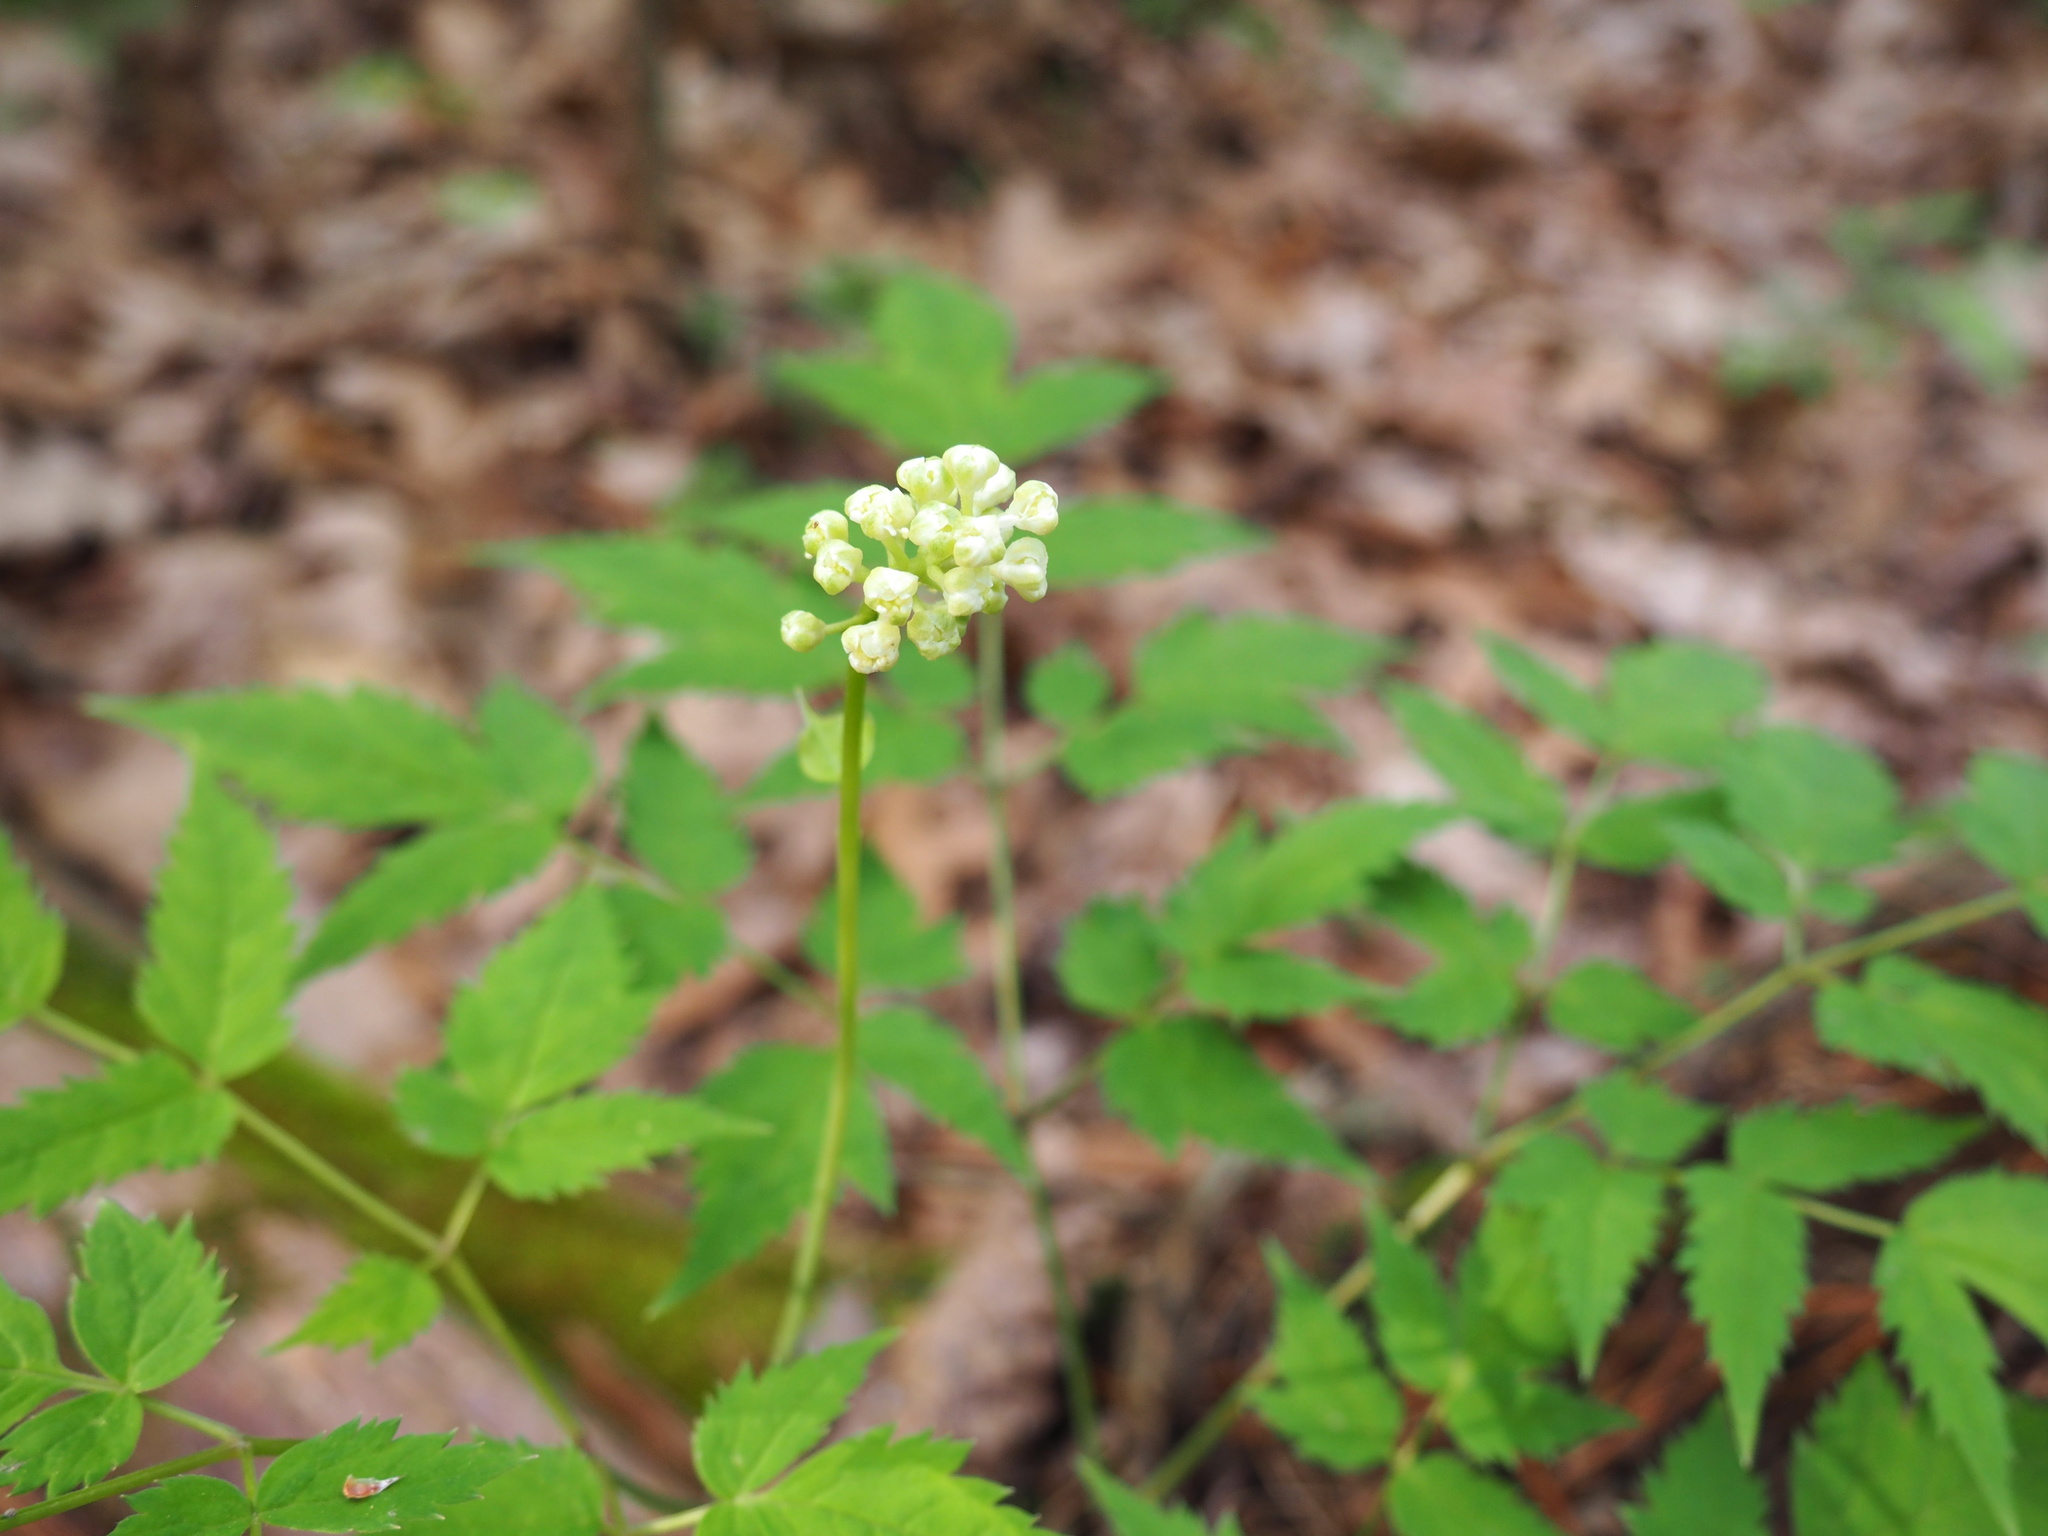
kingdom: Plantae
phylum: Tracheophyta
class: Magnoliopsida
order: Ranunculales
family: Ranunculaceae
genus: Actaea
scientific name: Actaea pachypoda
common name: Doll's-eyes
